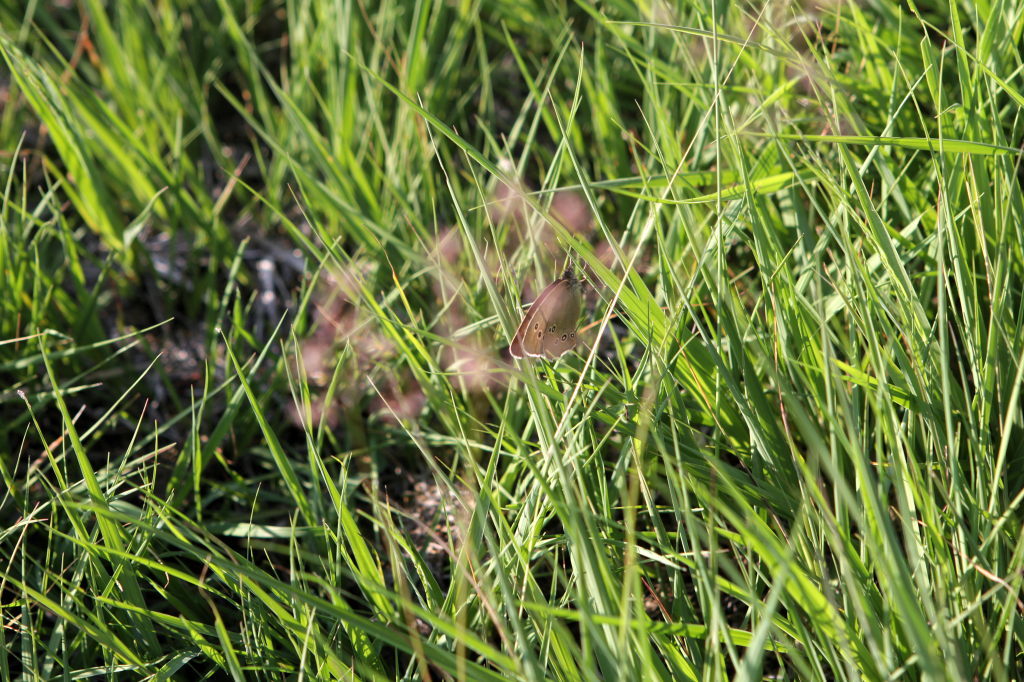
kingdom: Animalia
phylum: Arthropoda
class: Insecta
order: Lepidoptera
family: Nymphalidae
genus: Aphantopus
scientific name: Aphantopus hyperantus
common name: Ringlet
